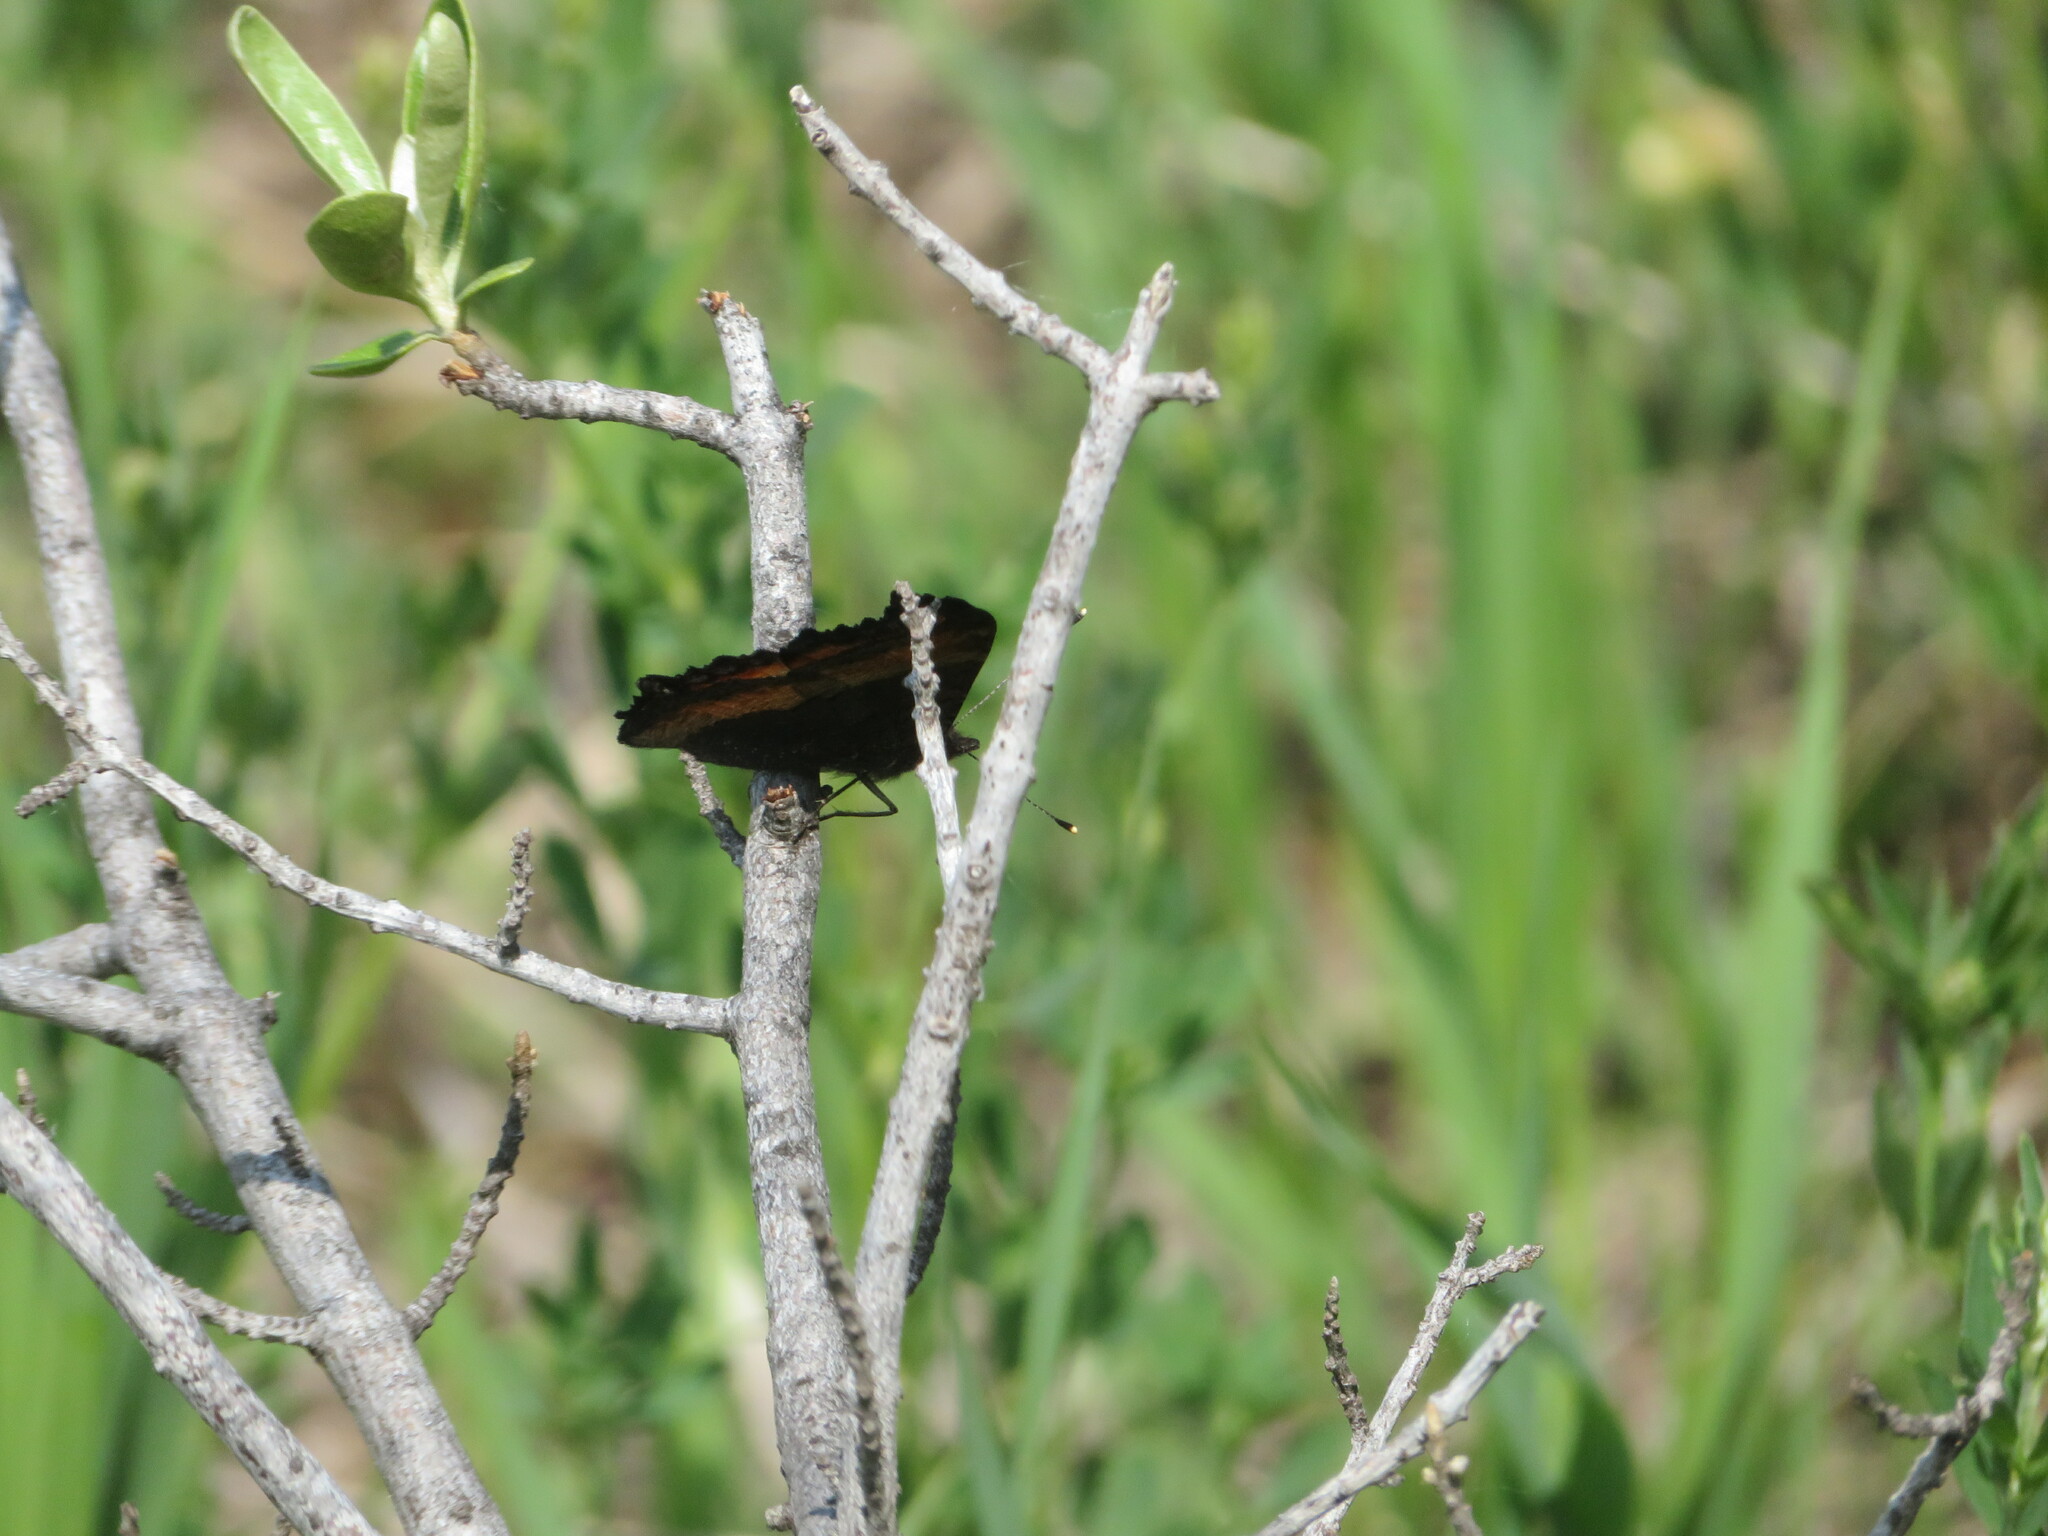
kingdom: Animalia
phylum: Arthropoda
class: Insecta
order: Lepidoptera
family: Nymphalidae
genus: Aglais
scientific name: Aglais milberti
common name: Milbert's tortoiseshell
